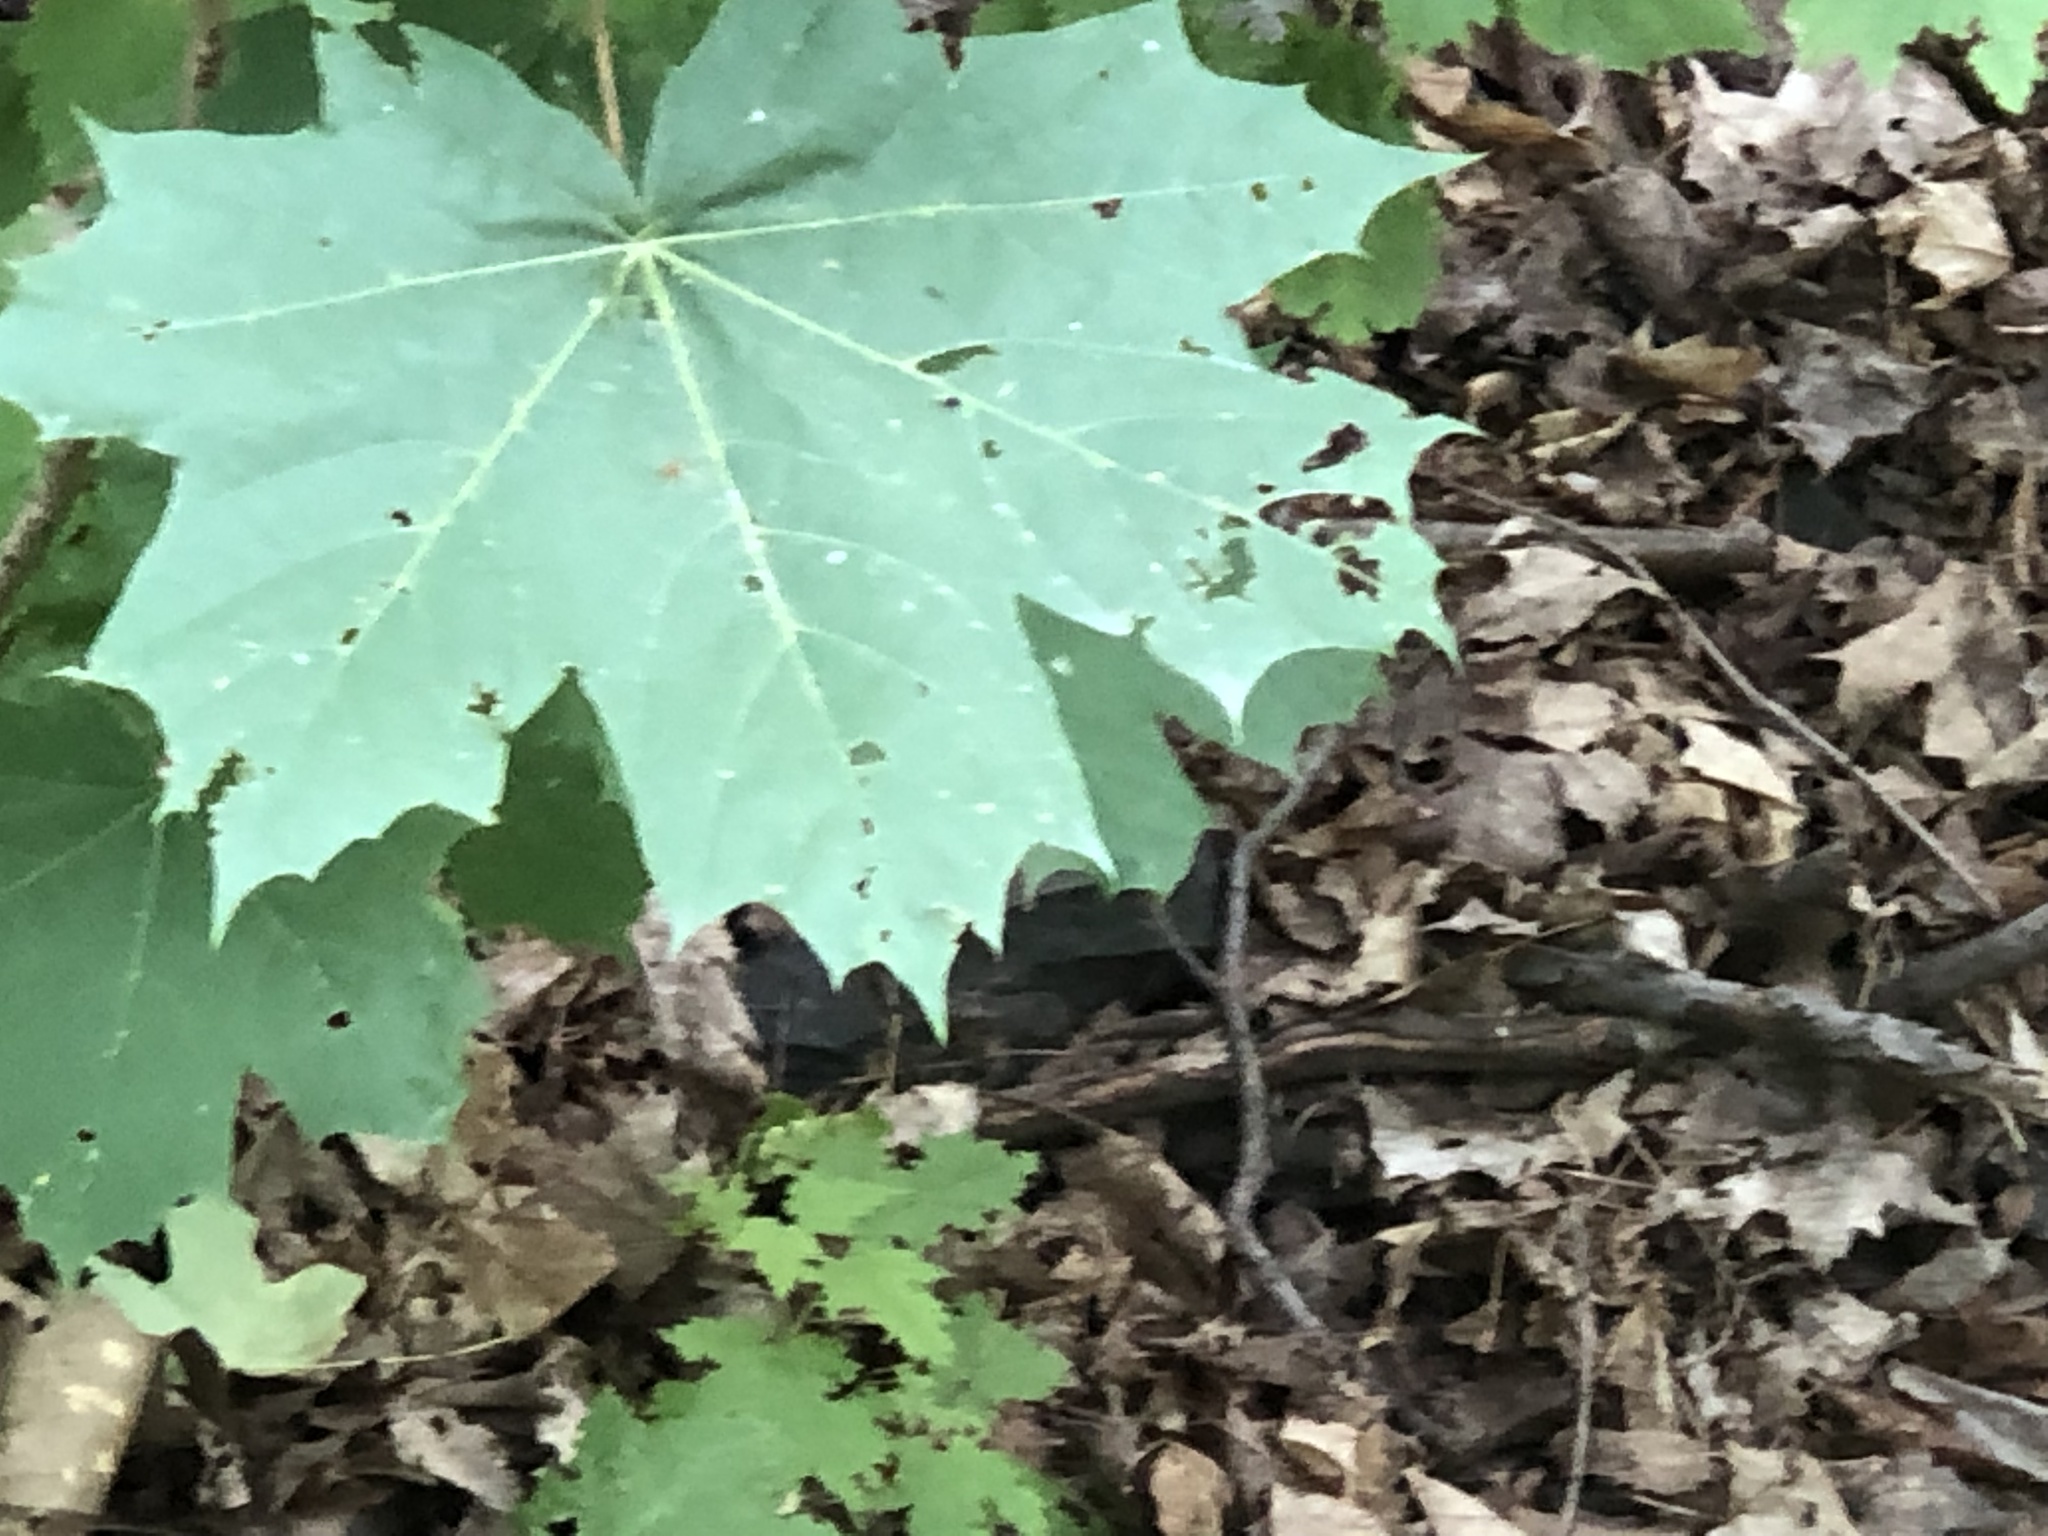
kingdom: Plantae
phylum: Tracheophyta
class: Magnoliopsida
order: Sapindales
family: Sapindaceae
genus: Acer
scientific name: Acer platanoides
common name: Norway maple
